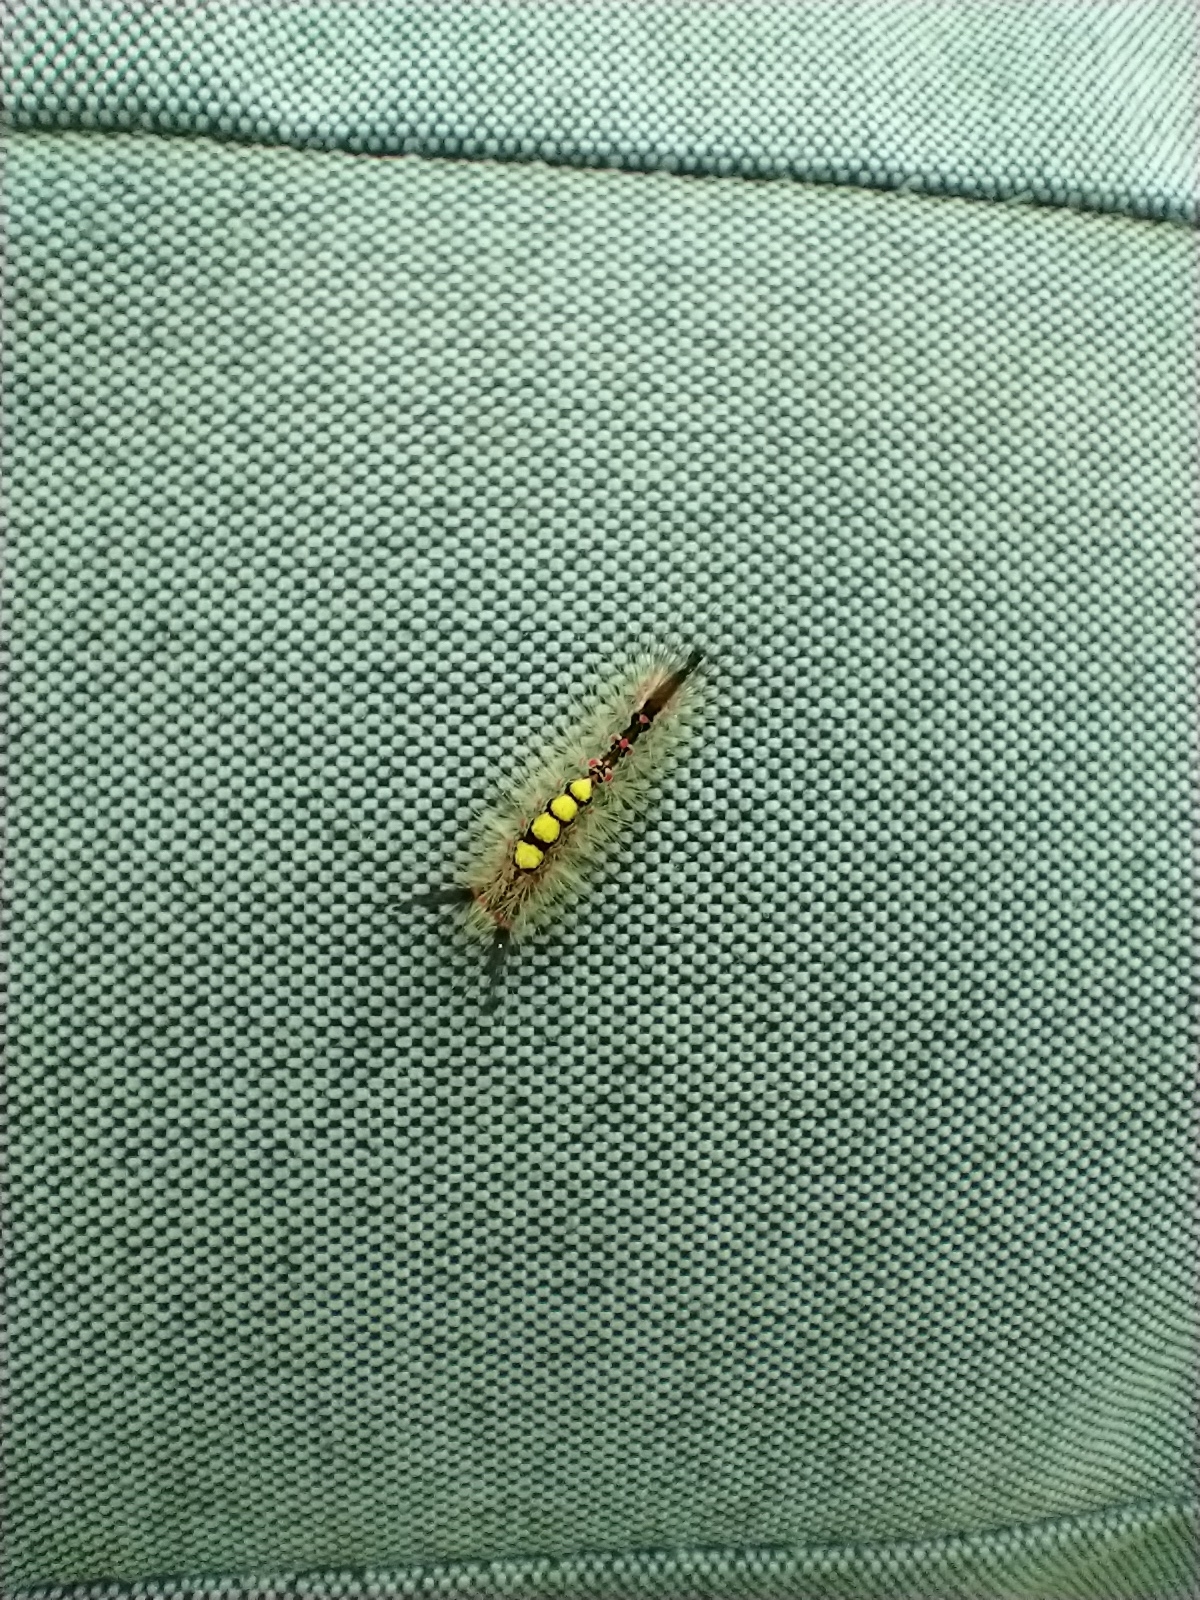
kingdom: Animalia
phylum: Arthropoda
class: Insecta
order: Lepidoptera
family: Erebidae
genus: Orgyia
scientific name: Orgyia antiqua
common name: Vapourer
